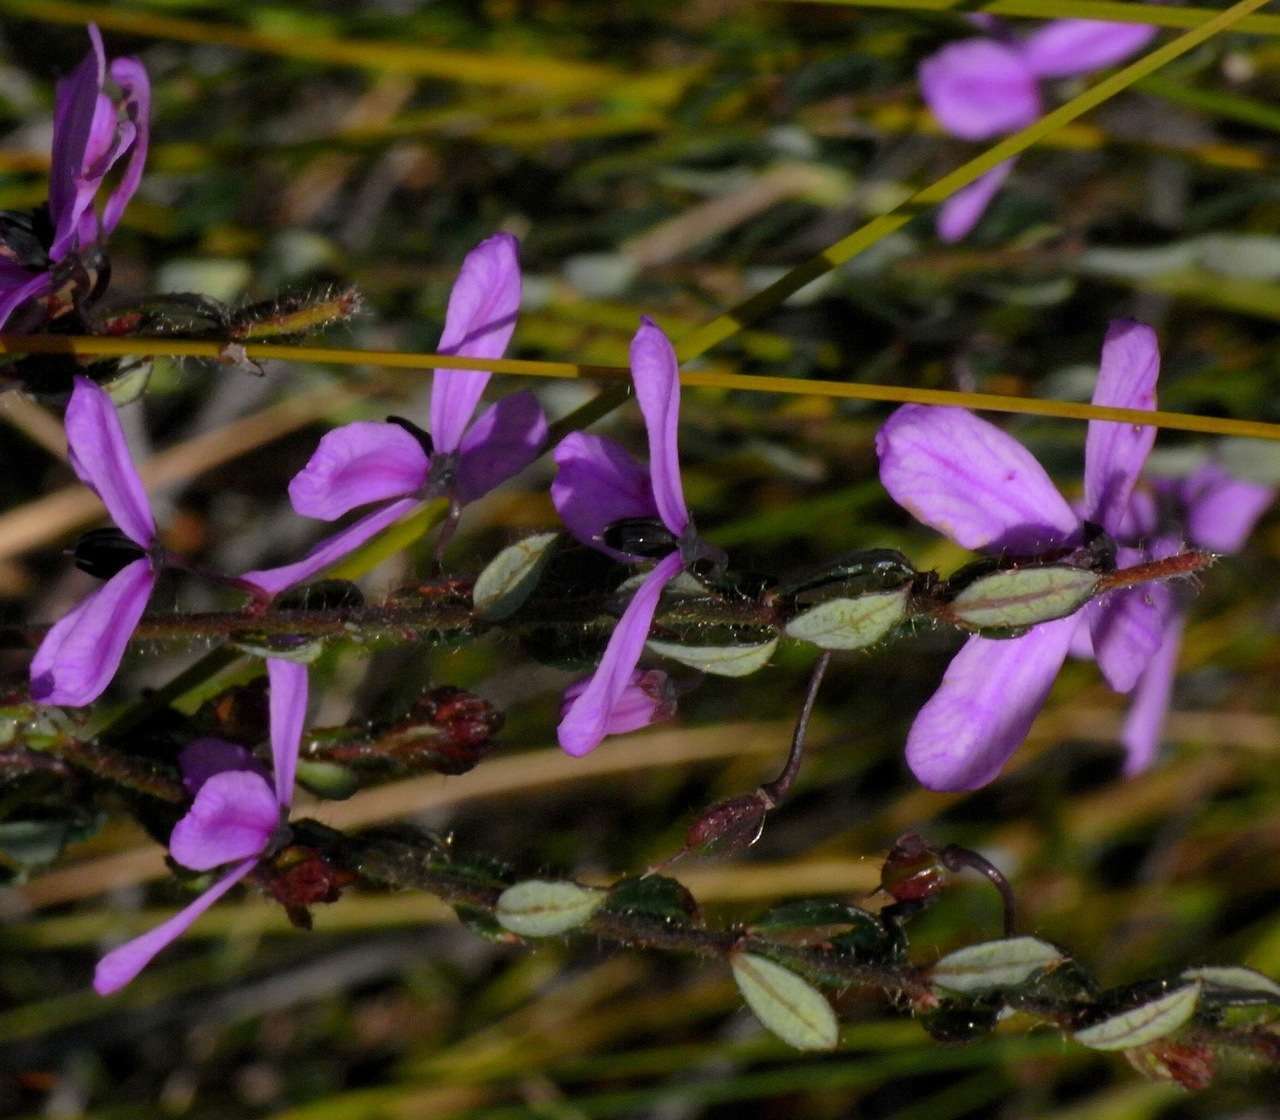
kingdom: Plantae
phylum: Tracheophyta
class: Magnoliopsida
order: Oxalidales
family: Elaeocarpaceae
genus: Tetratheca
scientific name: Tetratheca pilosa
